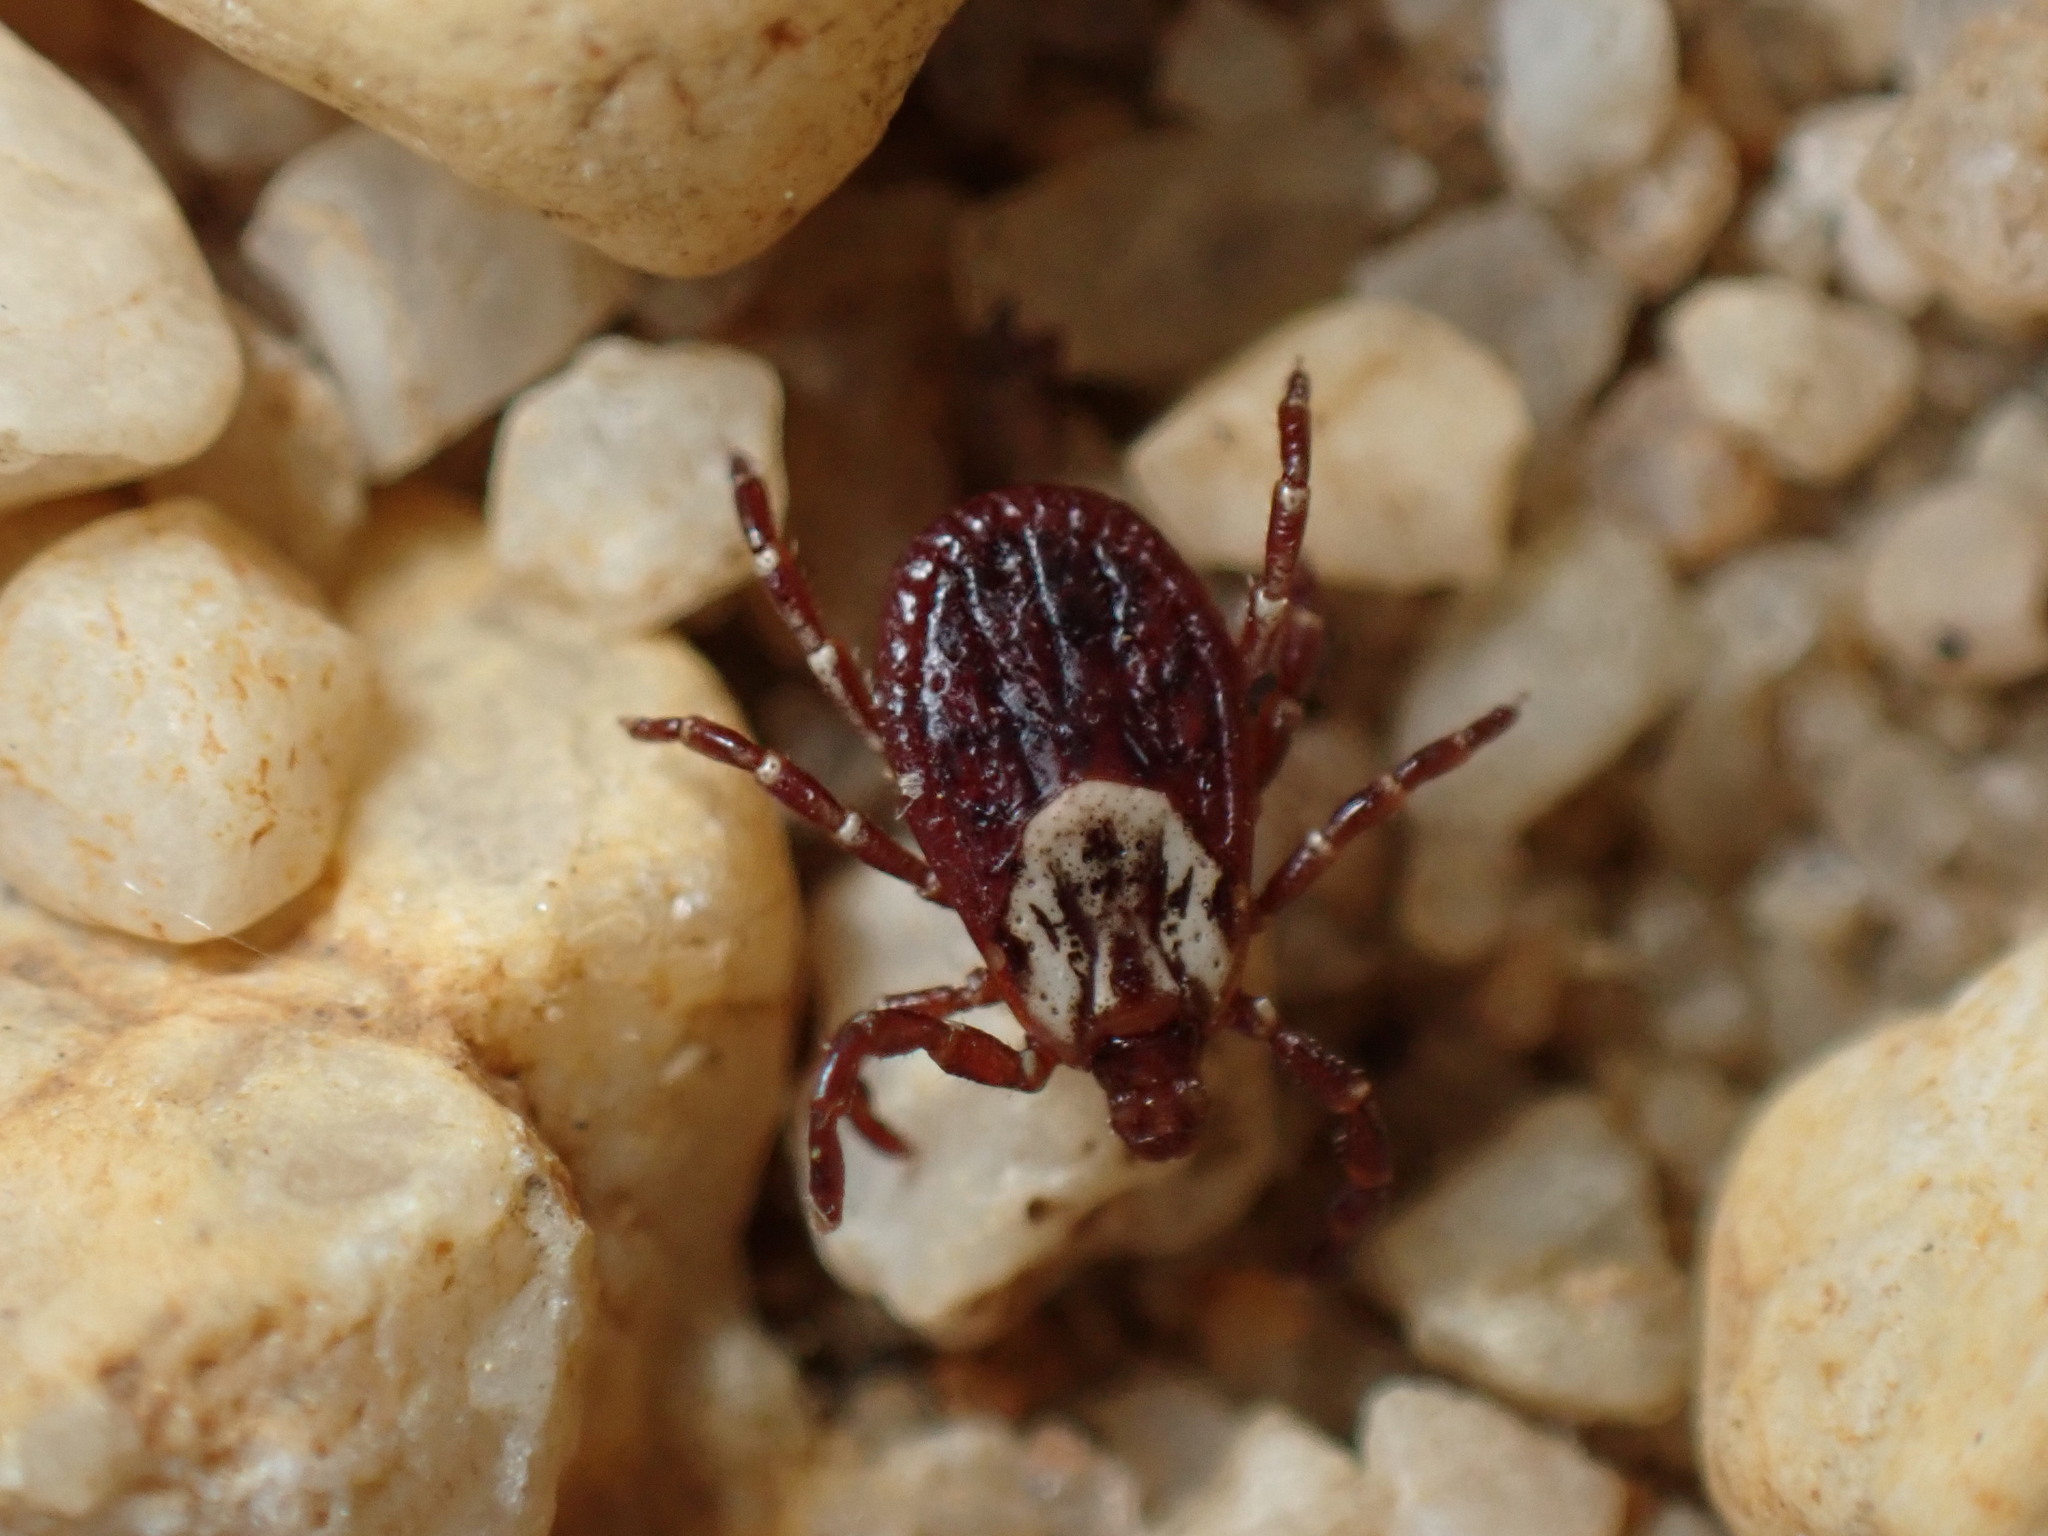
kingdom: Animalia
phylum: Arthropoda
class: Arachnida
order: Ixodida
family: Ixodidae
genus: Dermacentor
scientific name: Dermacentor variabilis
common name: American dog tick
